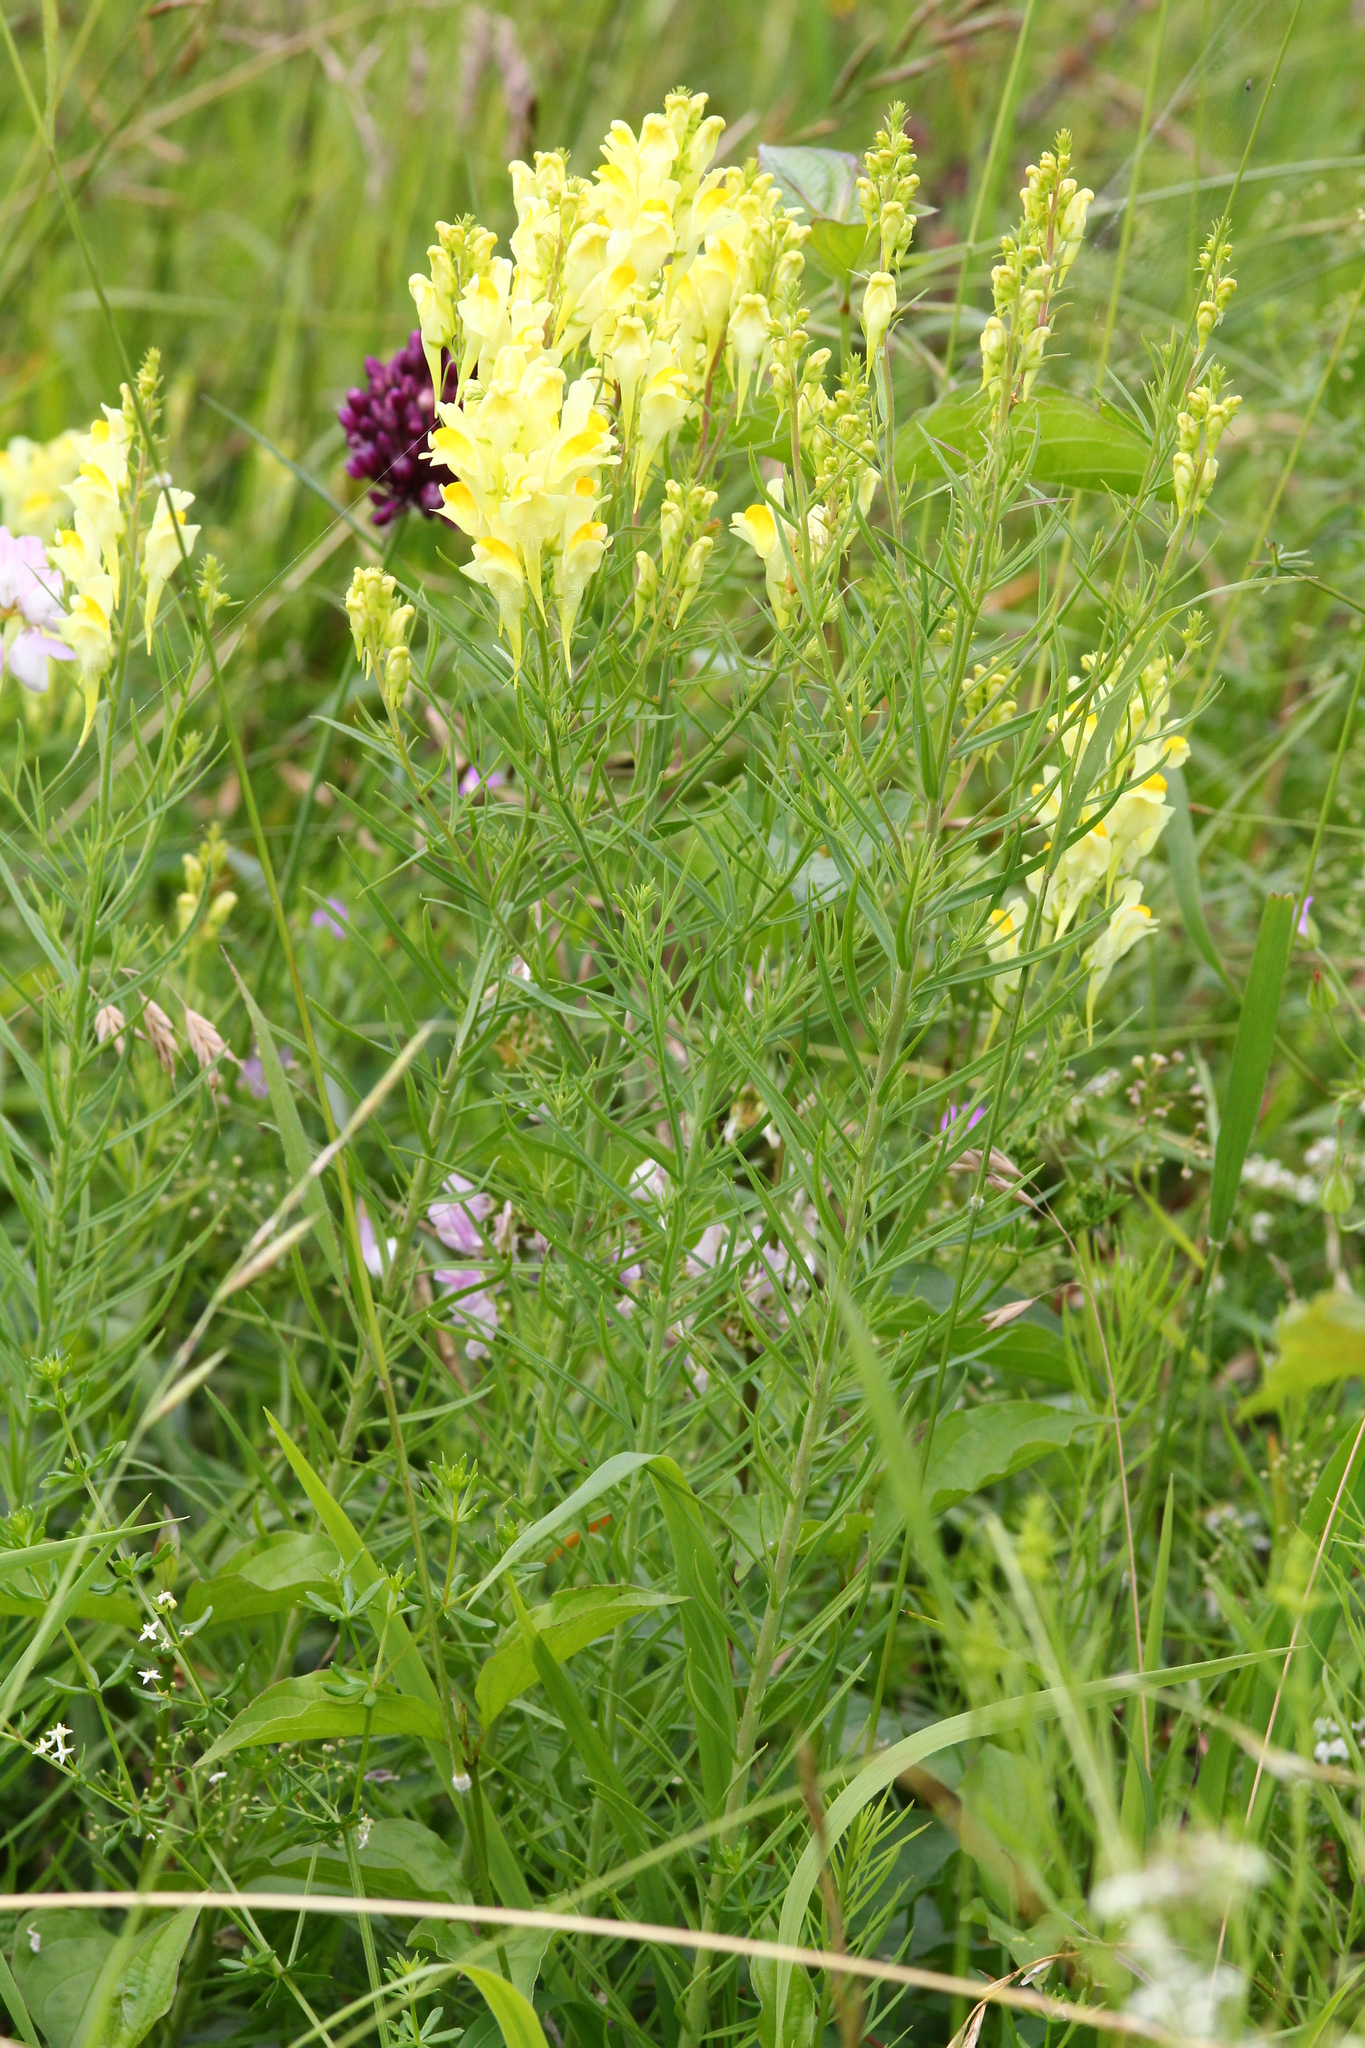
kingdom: Plantae
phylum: Tracheophyta
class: Magnoliopsida
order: Lamiales
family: Plantaginaceae
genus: Linaria
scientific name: Linaria vulgaris
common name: Butter and eggs
